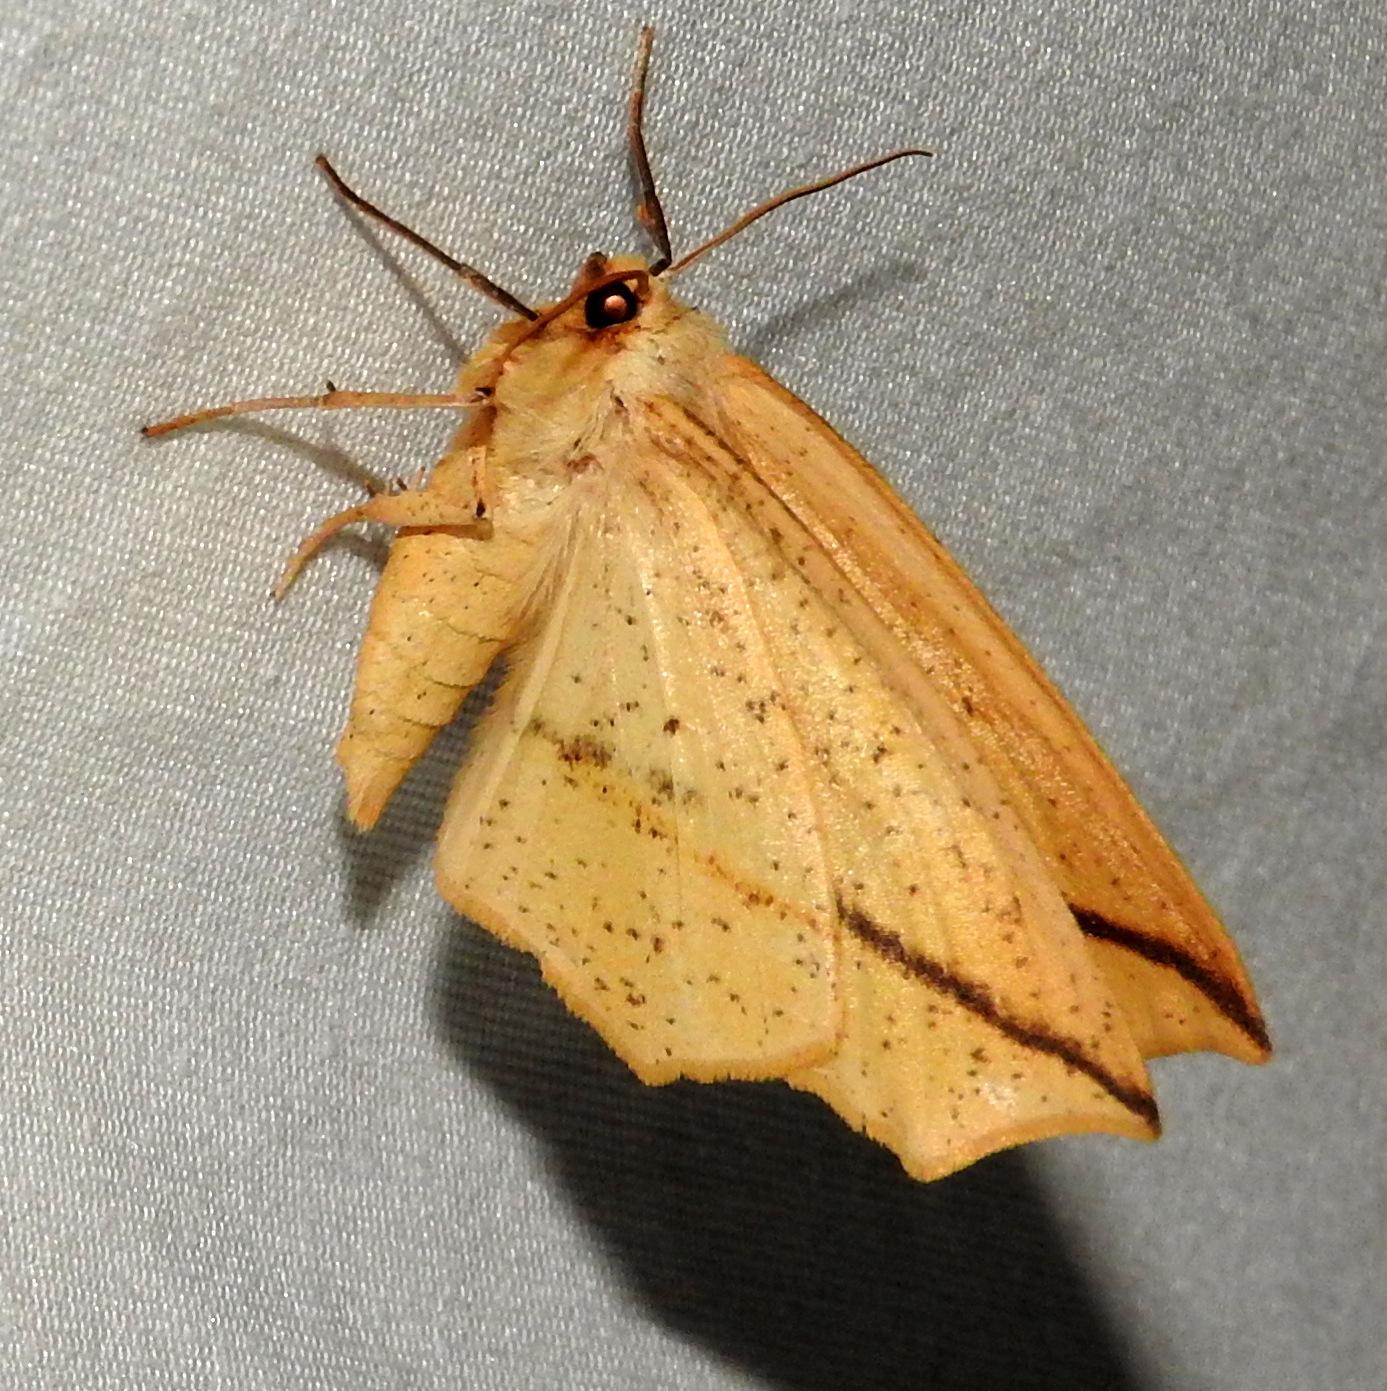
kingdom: Animalia
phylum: Arthropoda
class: Insecta
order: Lepidoptera
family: Geometridae
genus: Tetracis
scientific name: Tetracis crocallata
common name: Yellow slant-line
